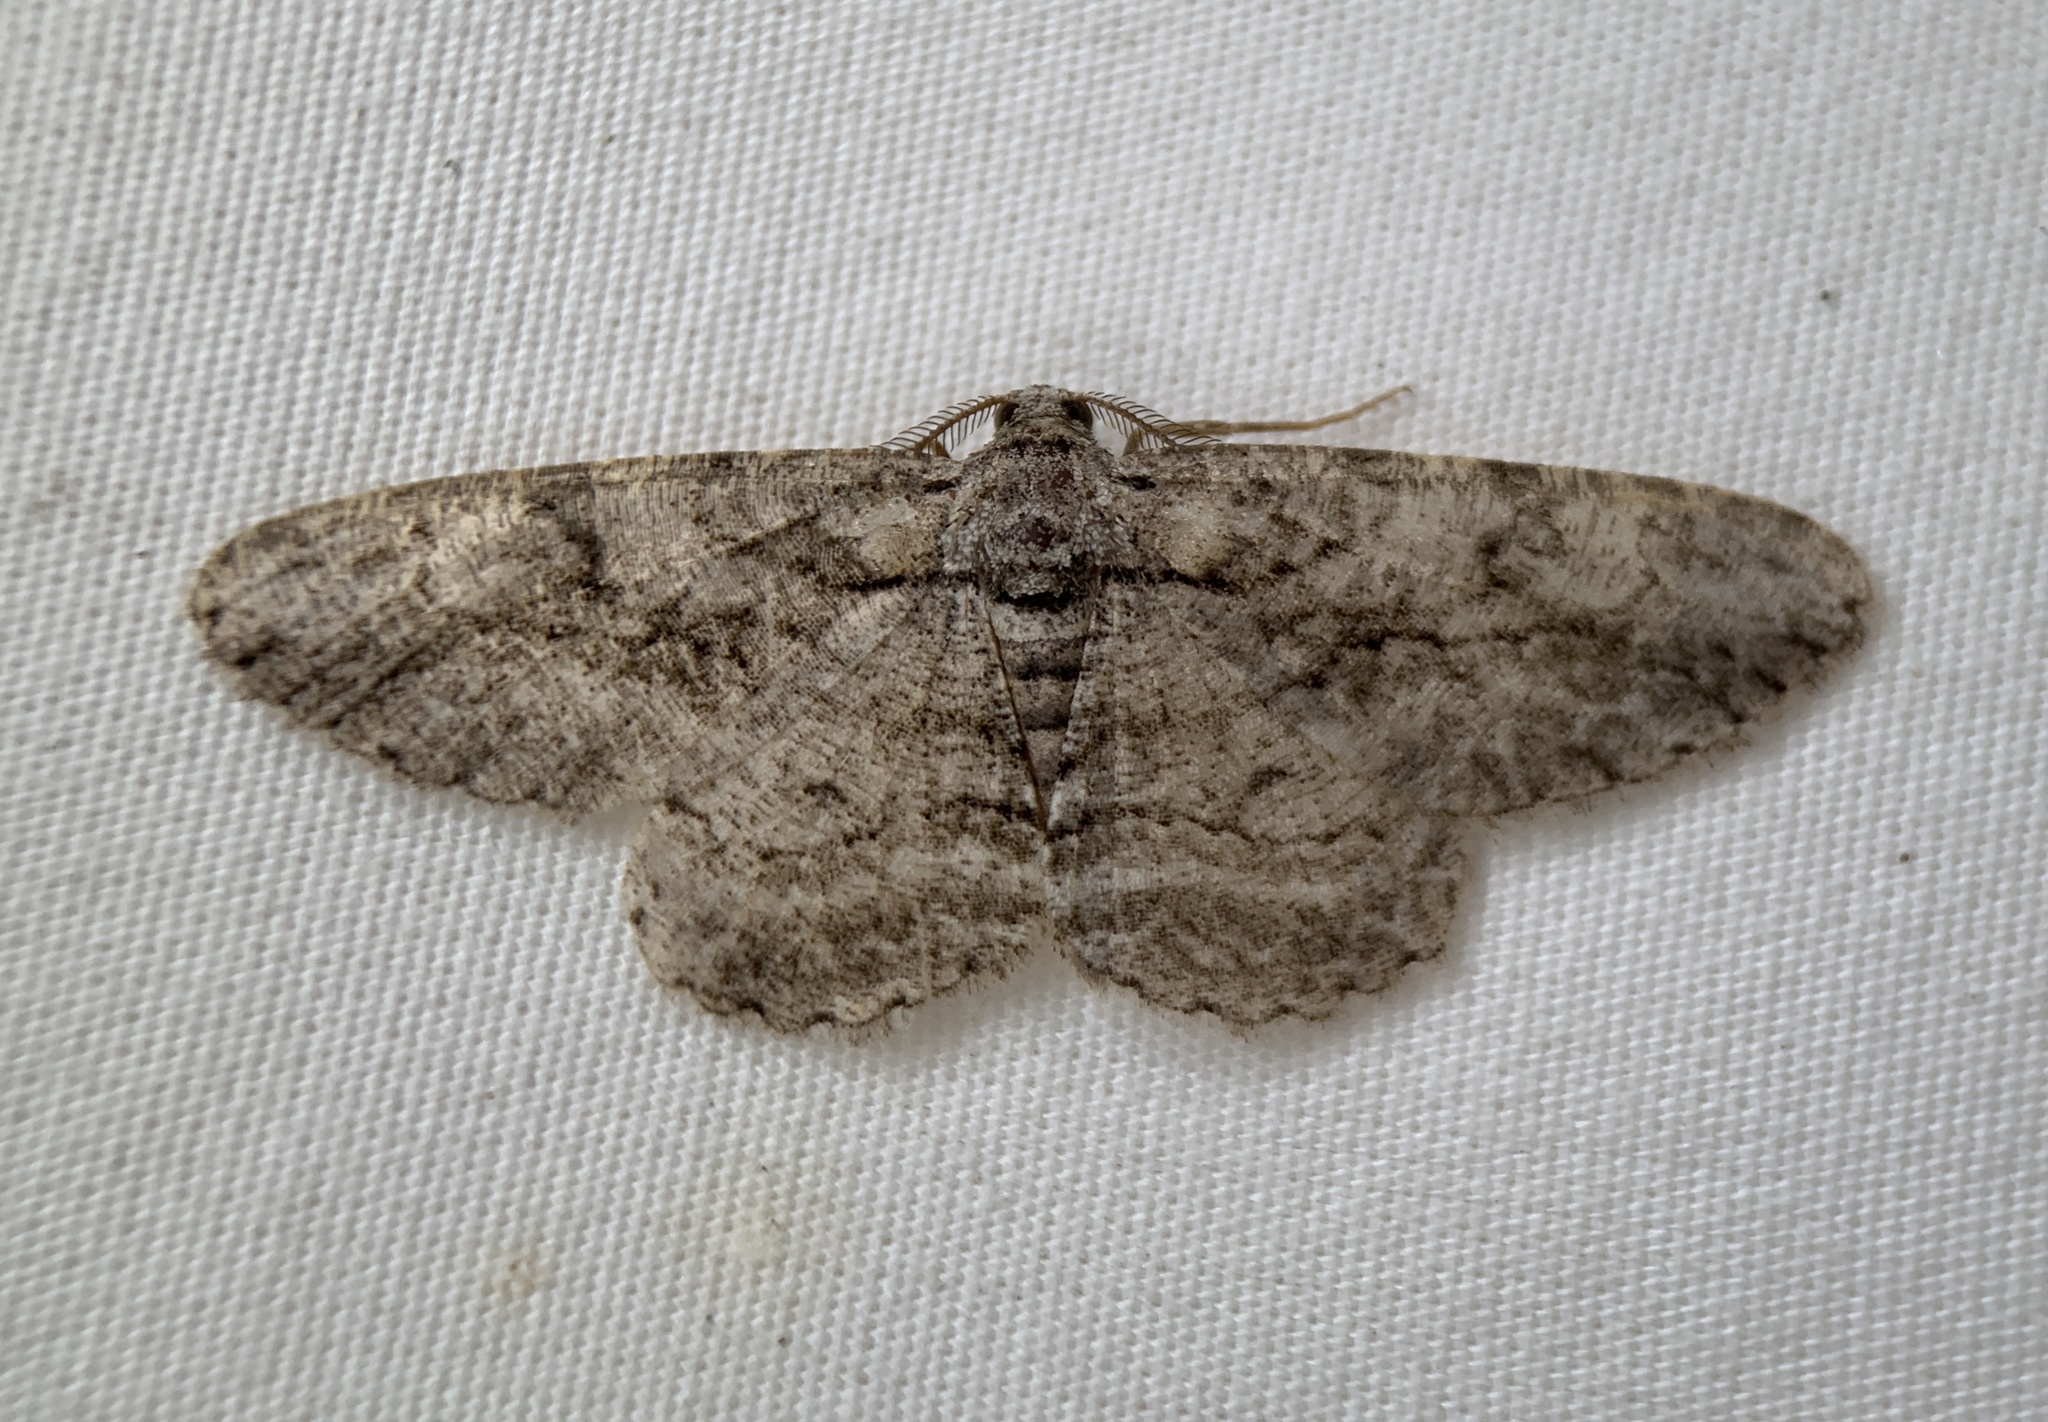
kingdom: Animalia
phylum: Arthropoda
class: Insecta
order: Lepidoptera
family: Geometridae
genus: Anavitrinella
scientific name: Anavitrinella pampinaria
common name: Common gray
